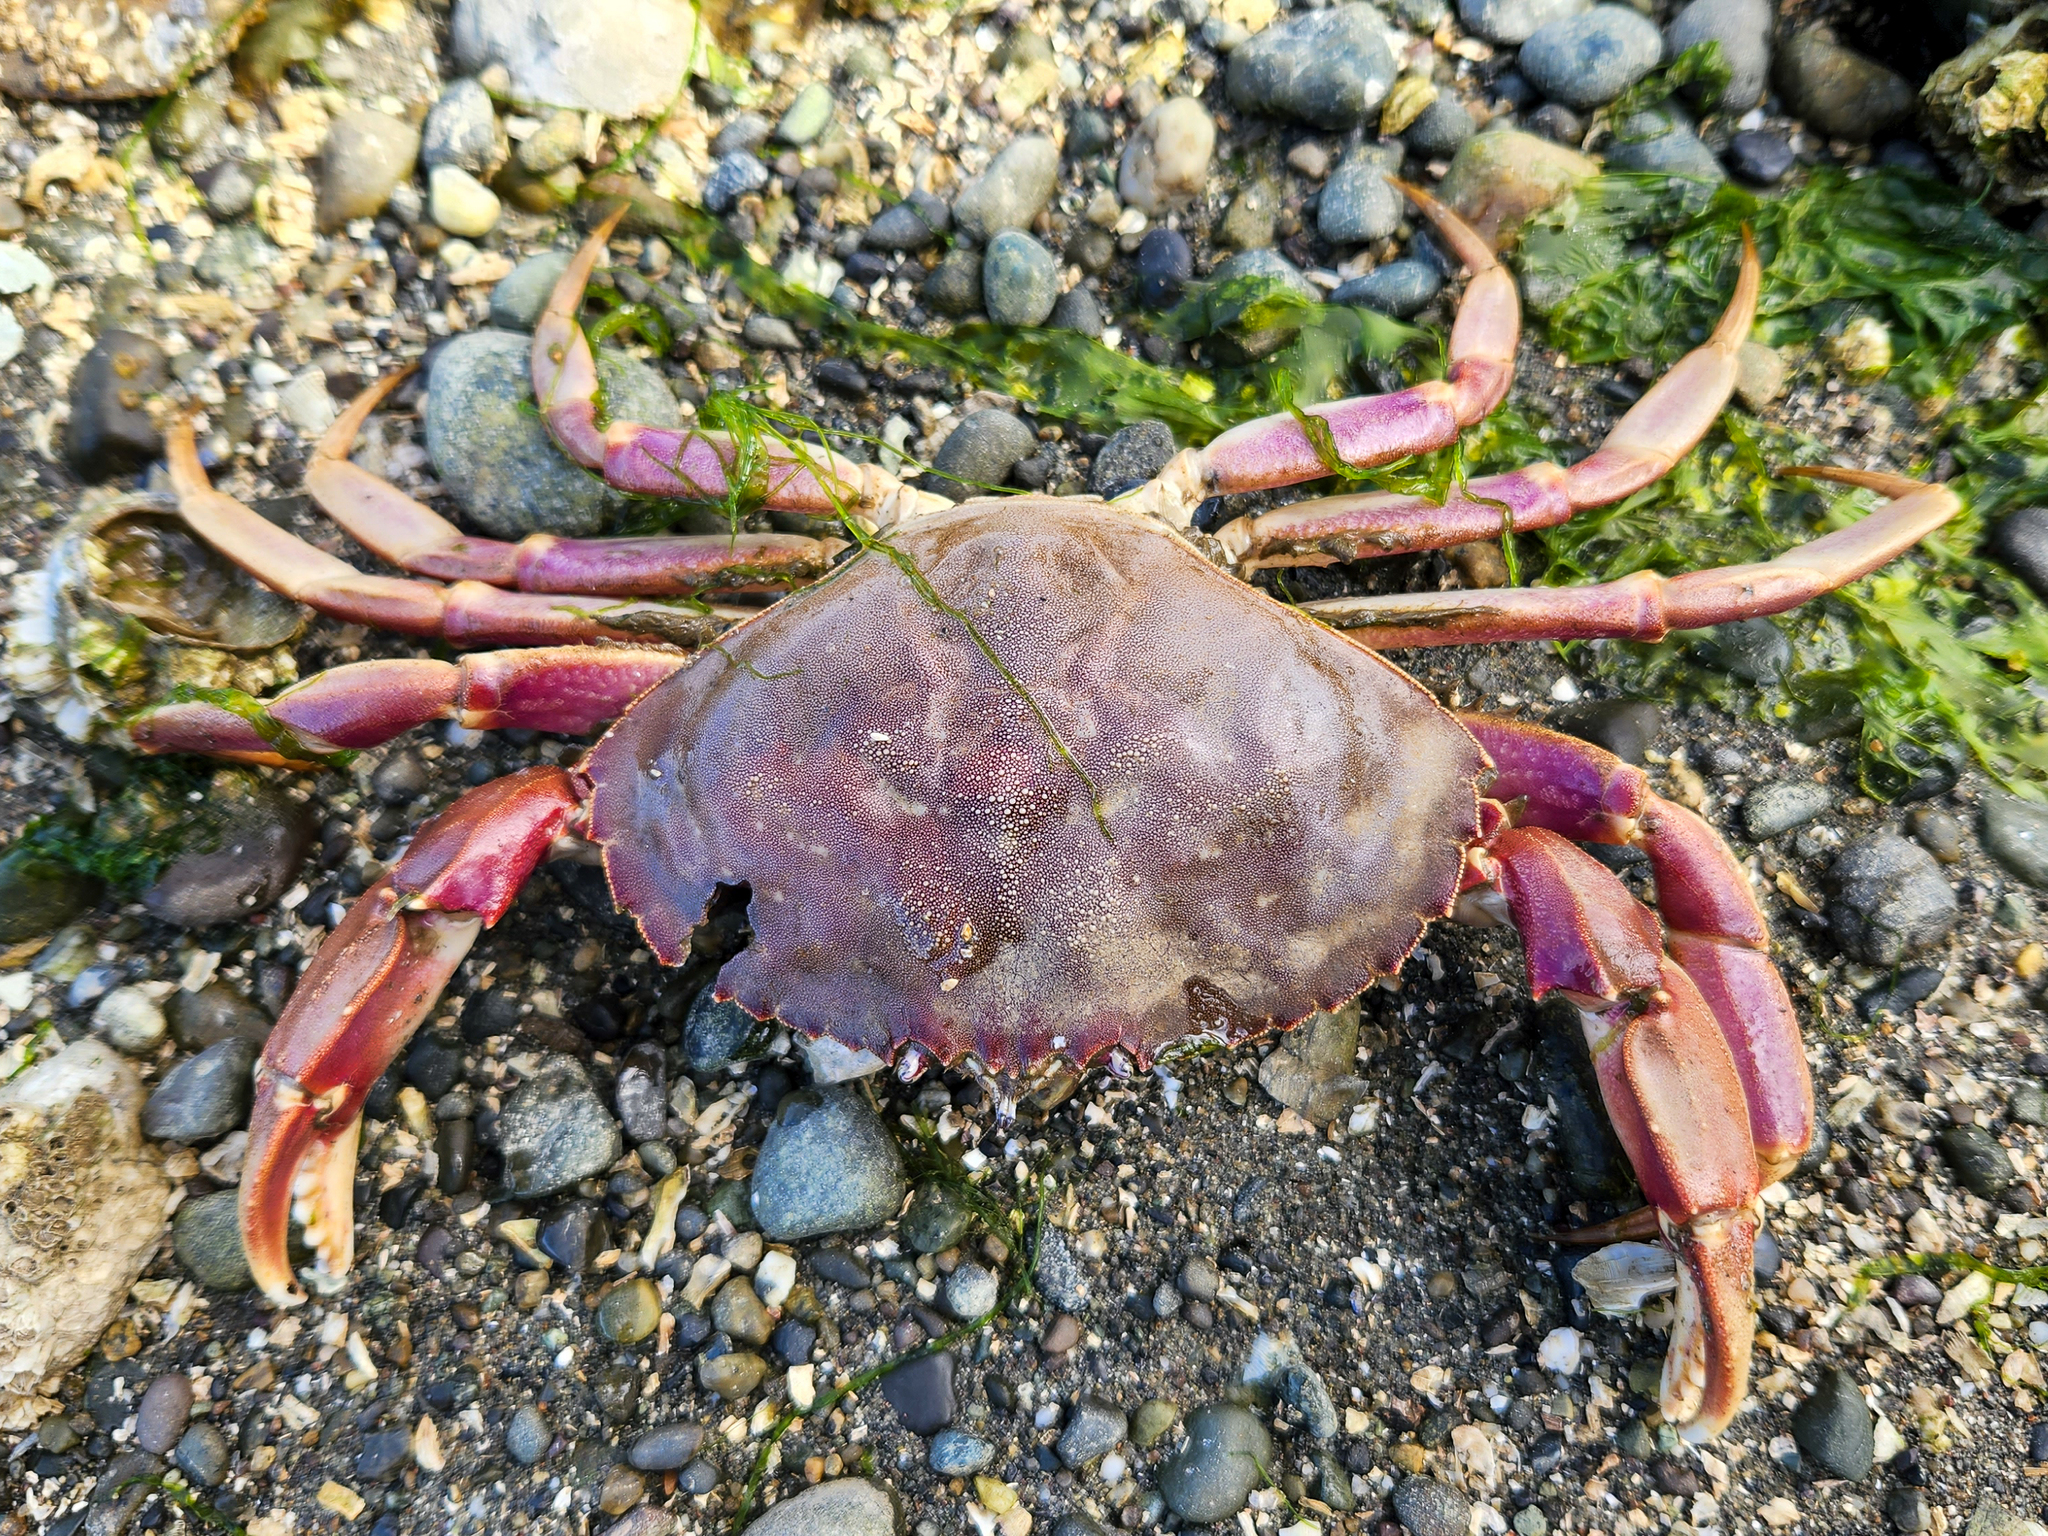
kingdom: Animalia
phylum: Arthropoda
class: Malacostraca
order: Decapoda
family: Cancridae
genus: Metacarcinus
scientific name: Metacarcinus gracilis
